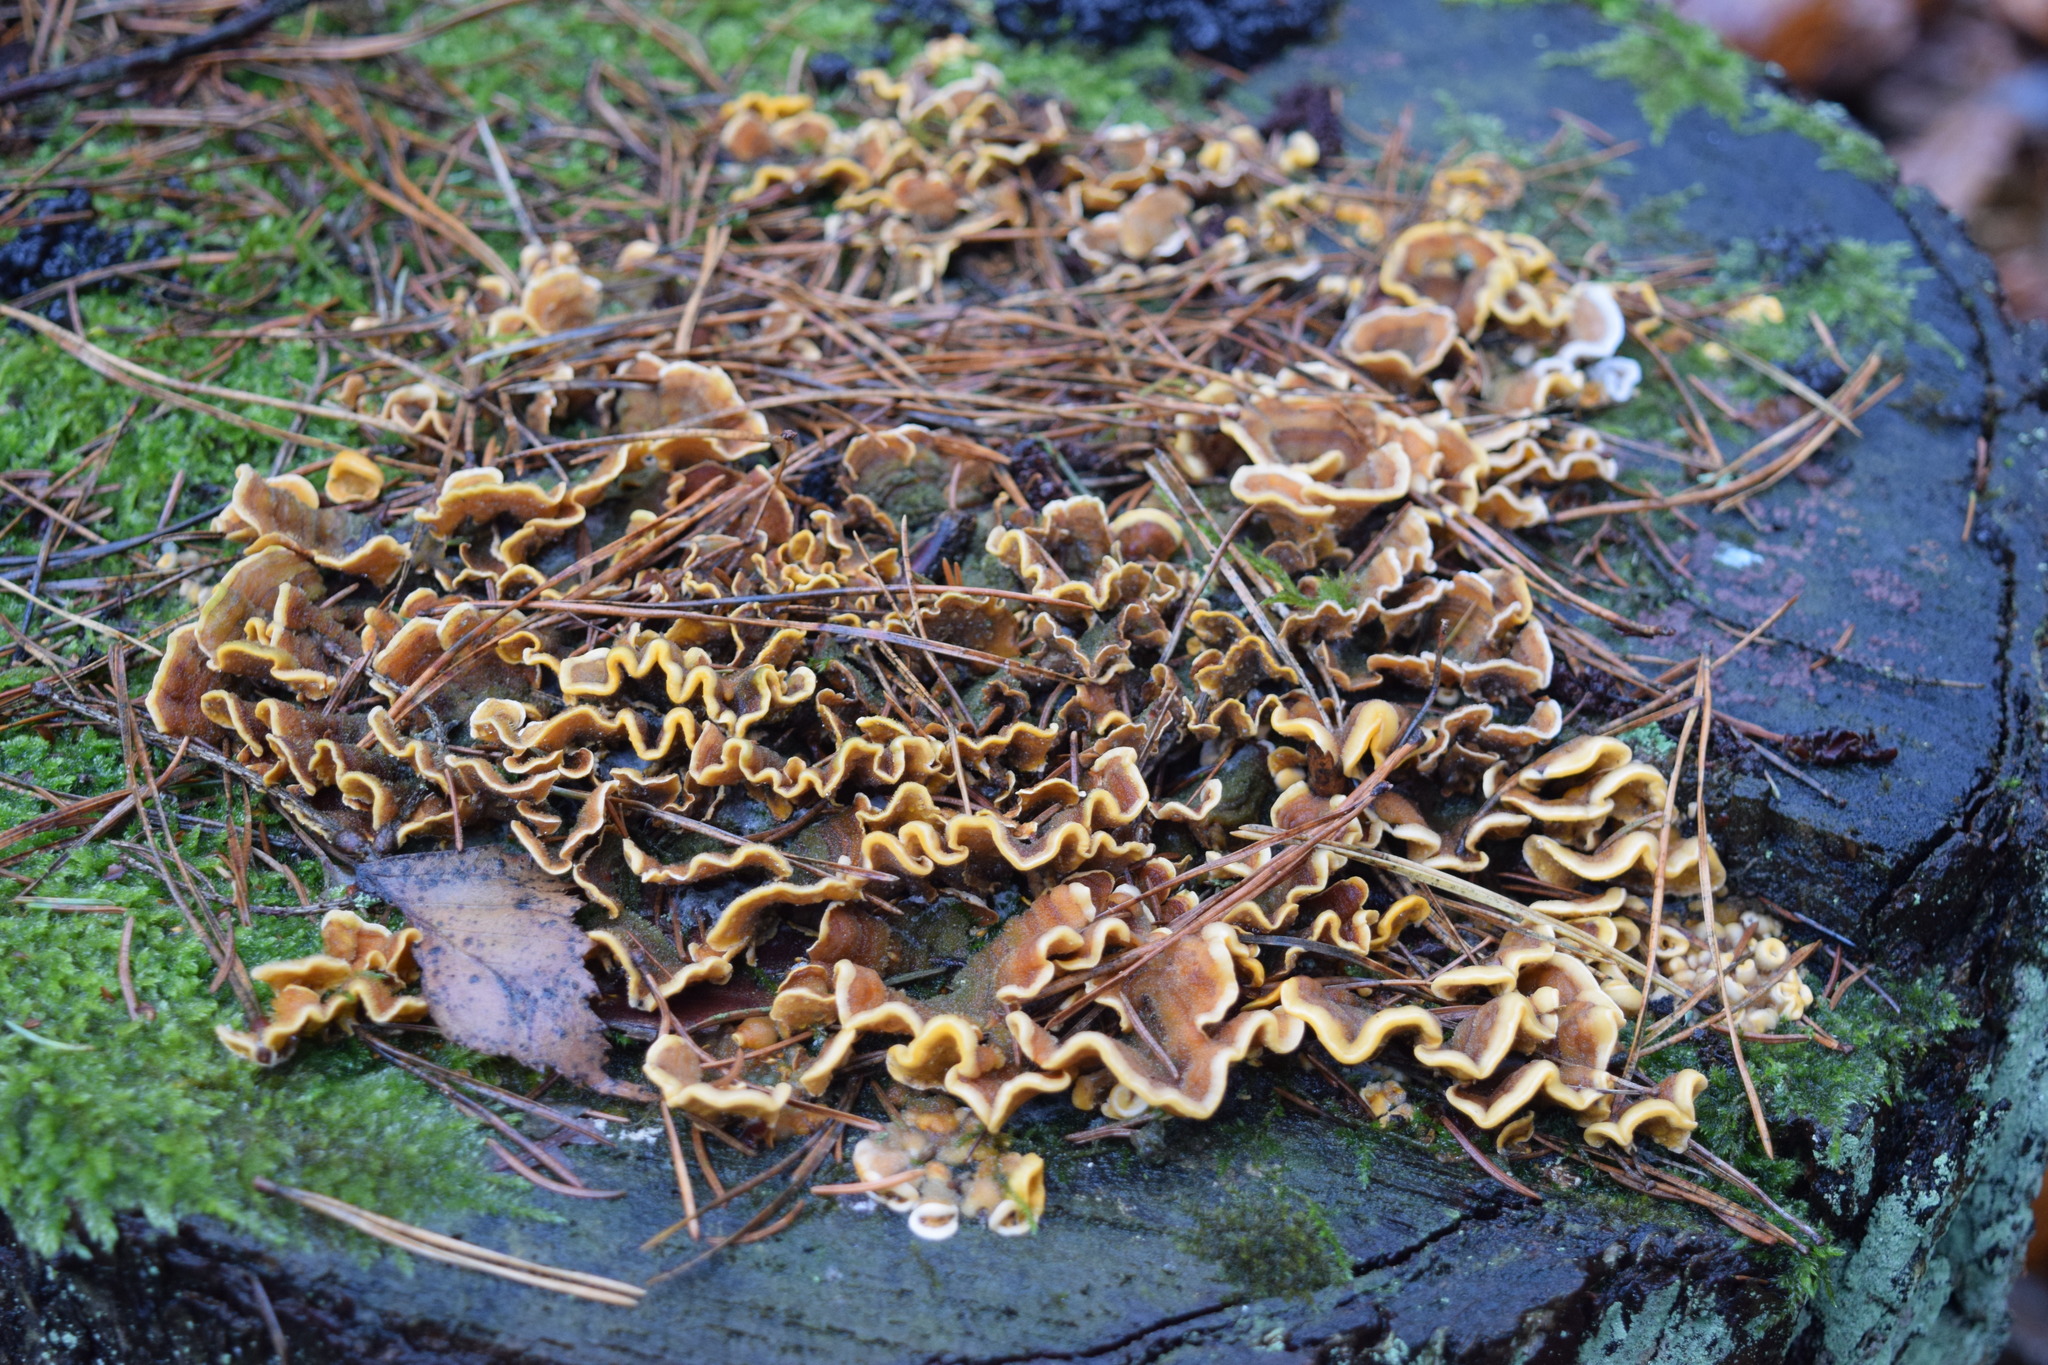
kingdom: Fungi
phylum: Basidiomycota
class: Agaricomycetes
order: Russulales
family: Stereaceae
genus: Stereum
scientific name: Stereum hirsutum
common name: Hairy curtain crust
